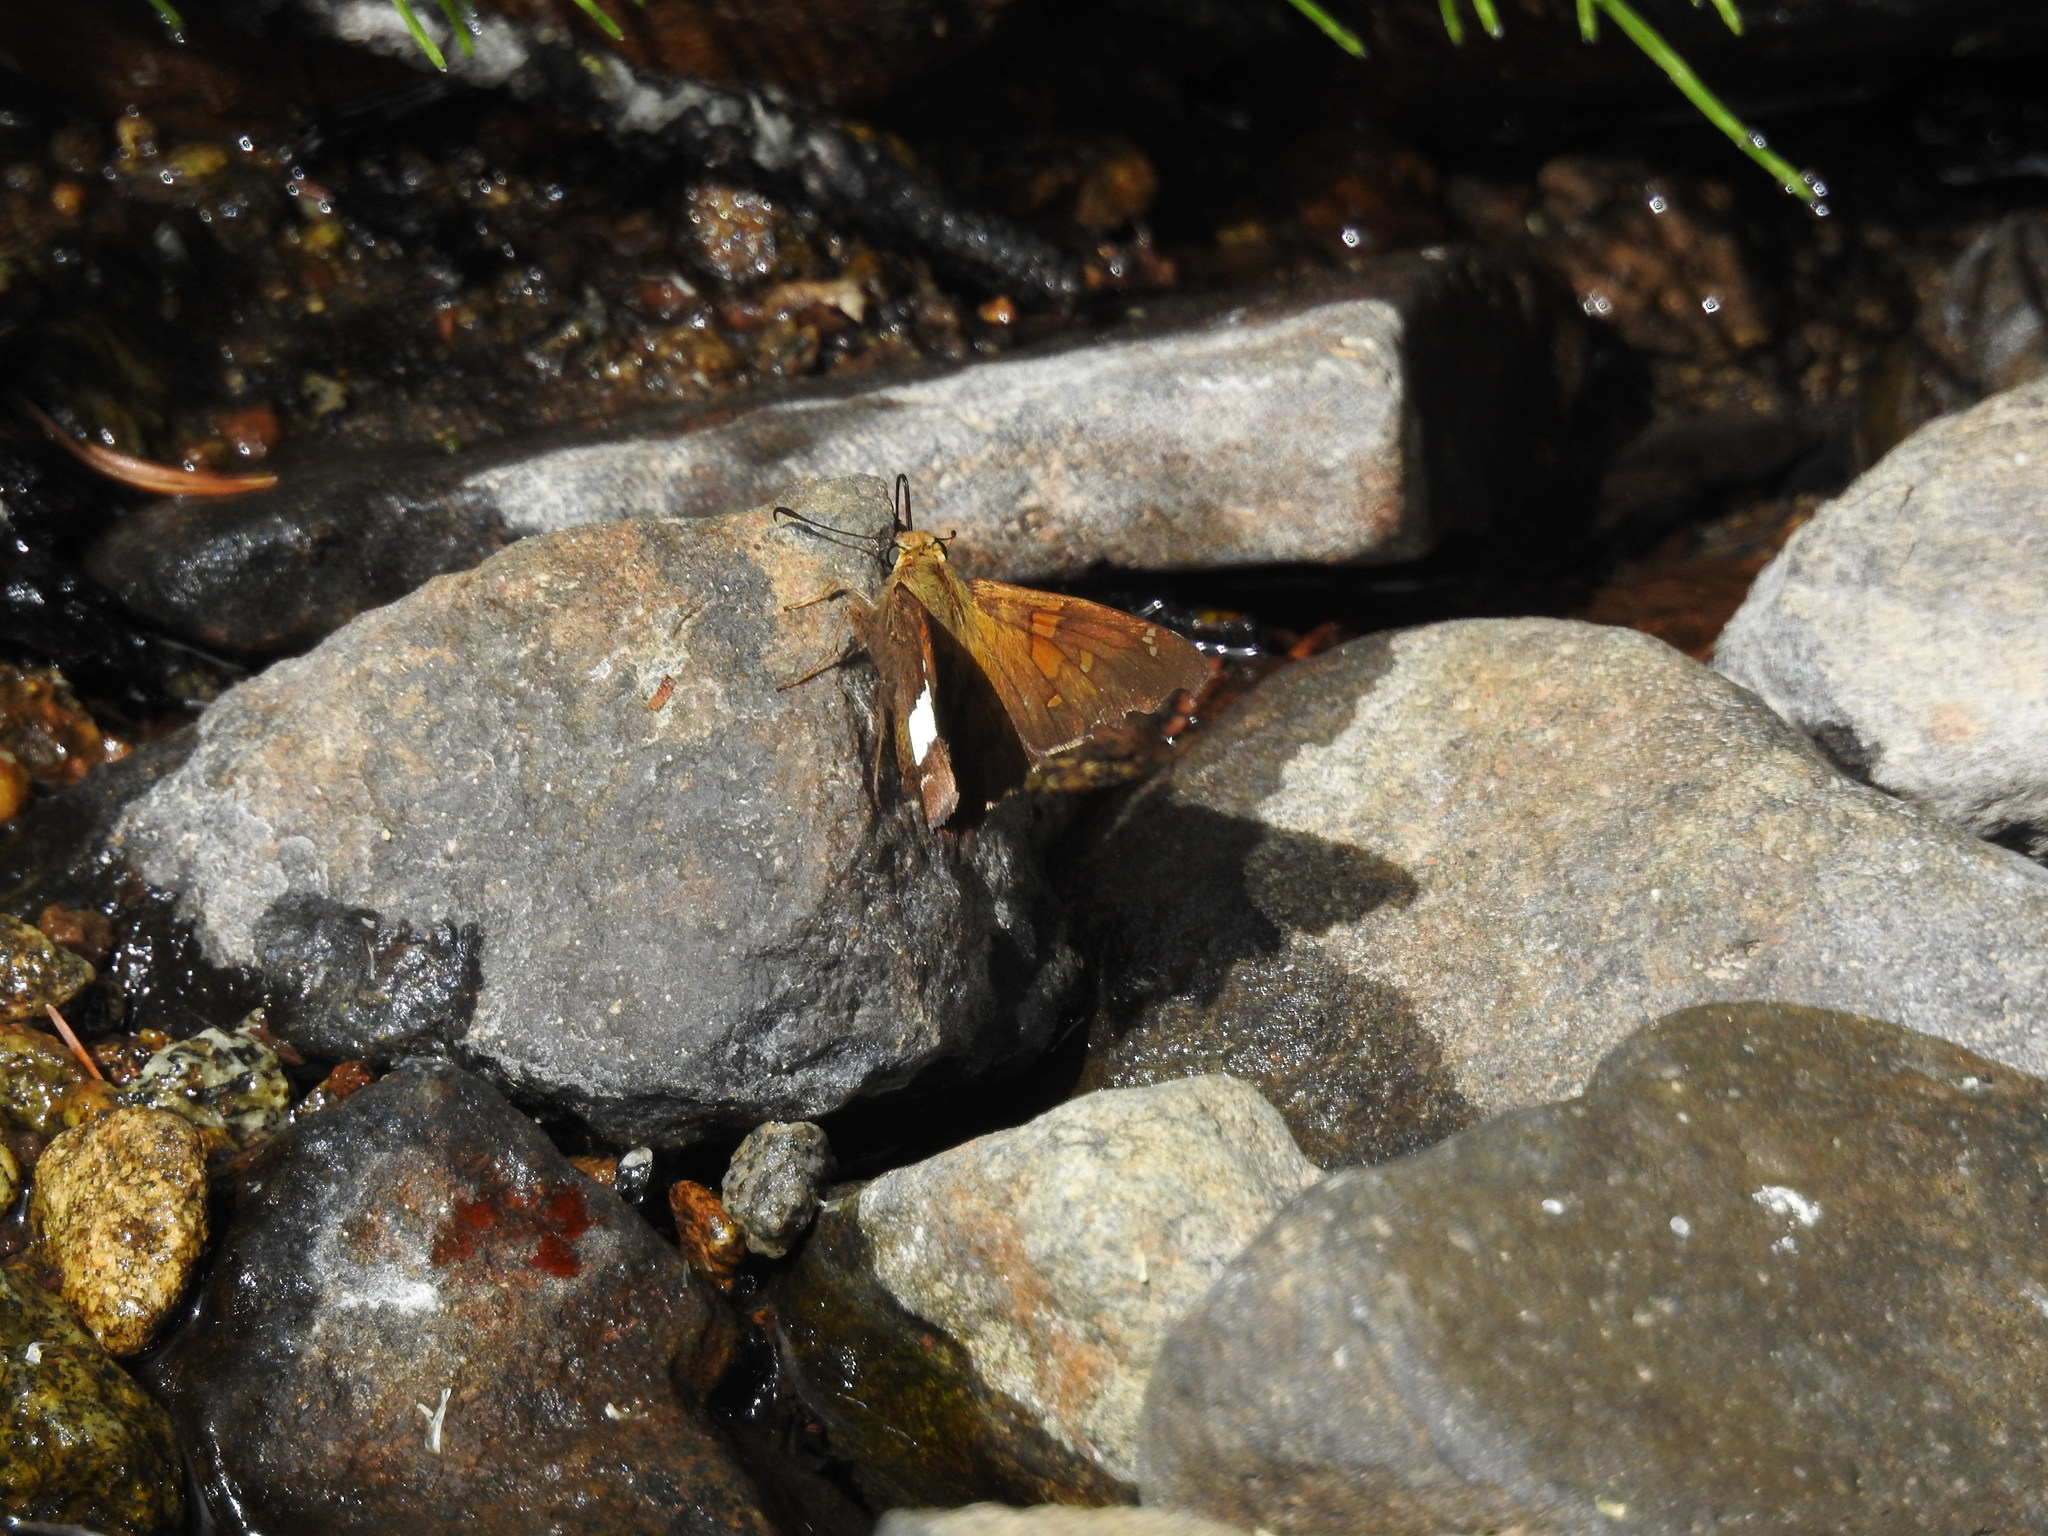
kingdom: Animalia
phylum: Arthropoda
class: Insecta
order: Lepidoptera
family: Hesperiidae
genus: Epargyreus
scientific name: Epargyreus clarus
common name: Silver-spotted skipper
